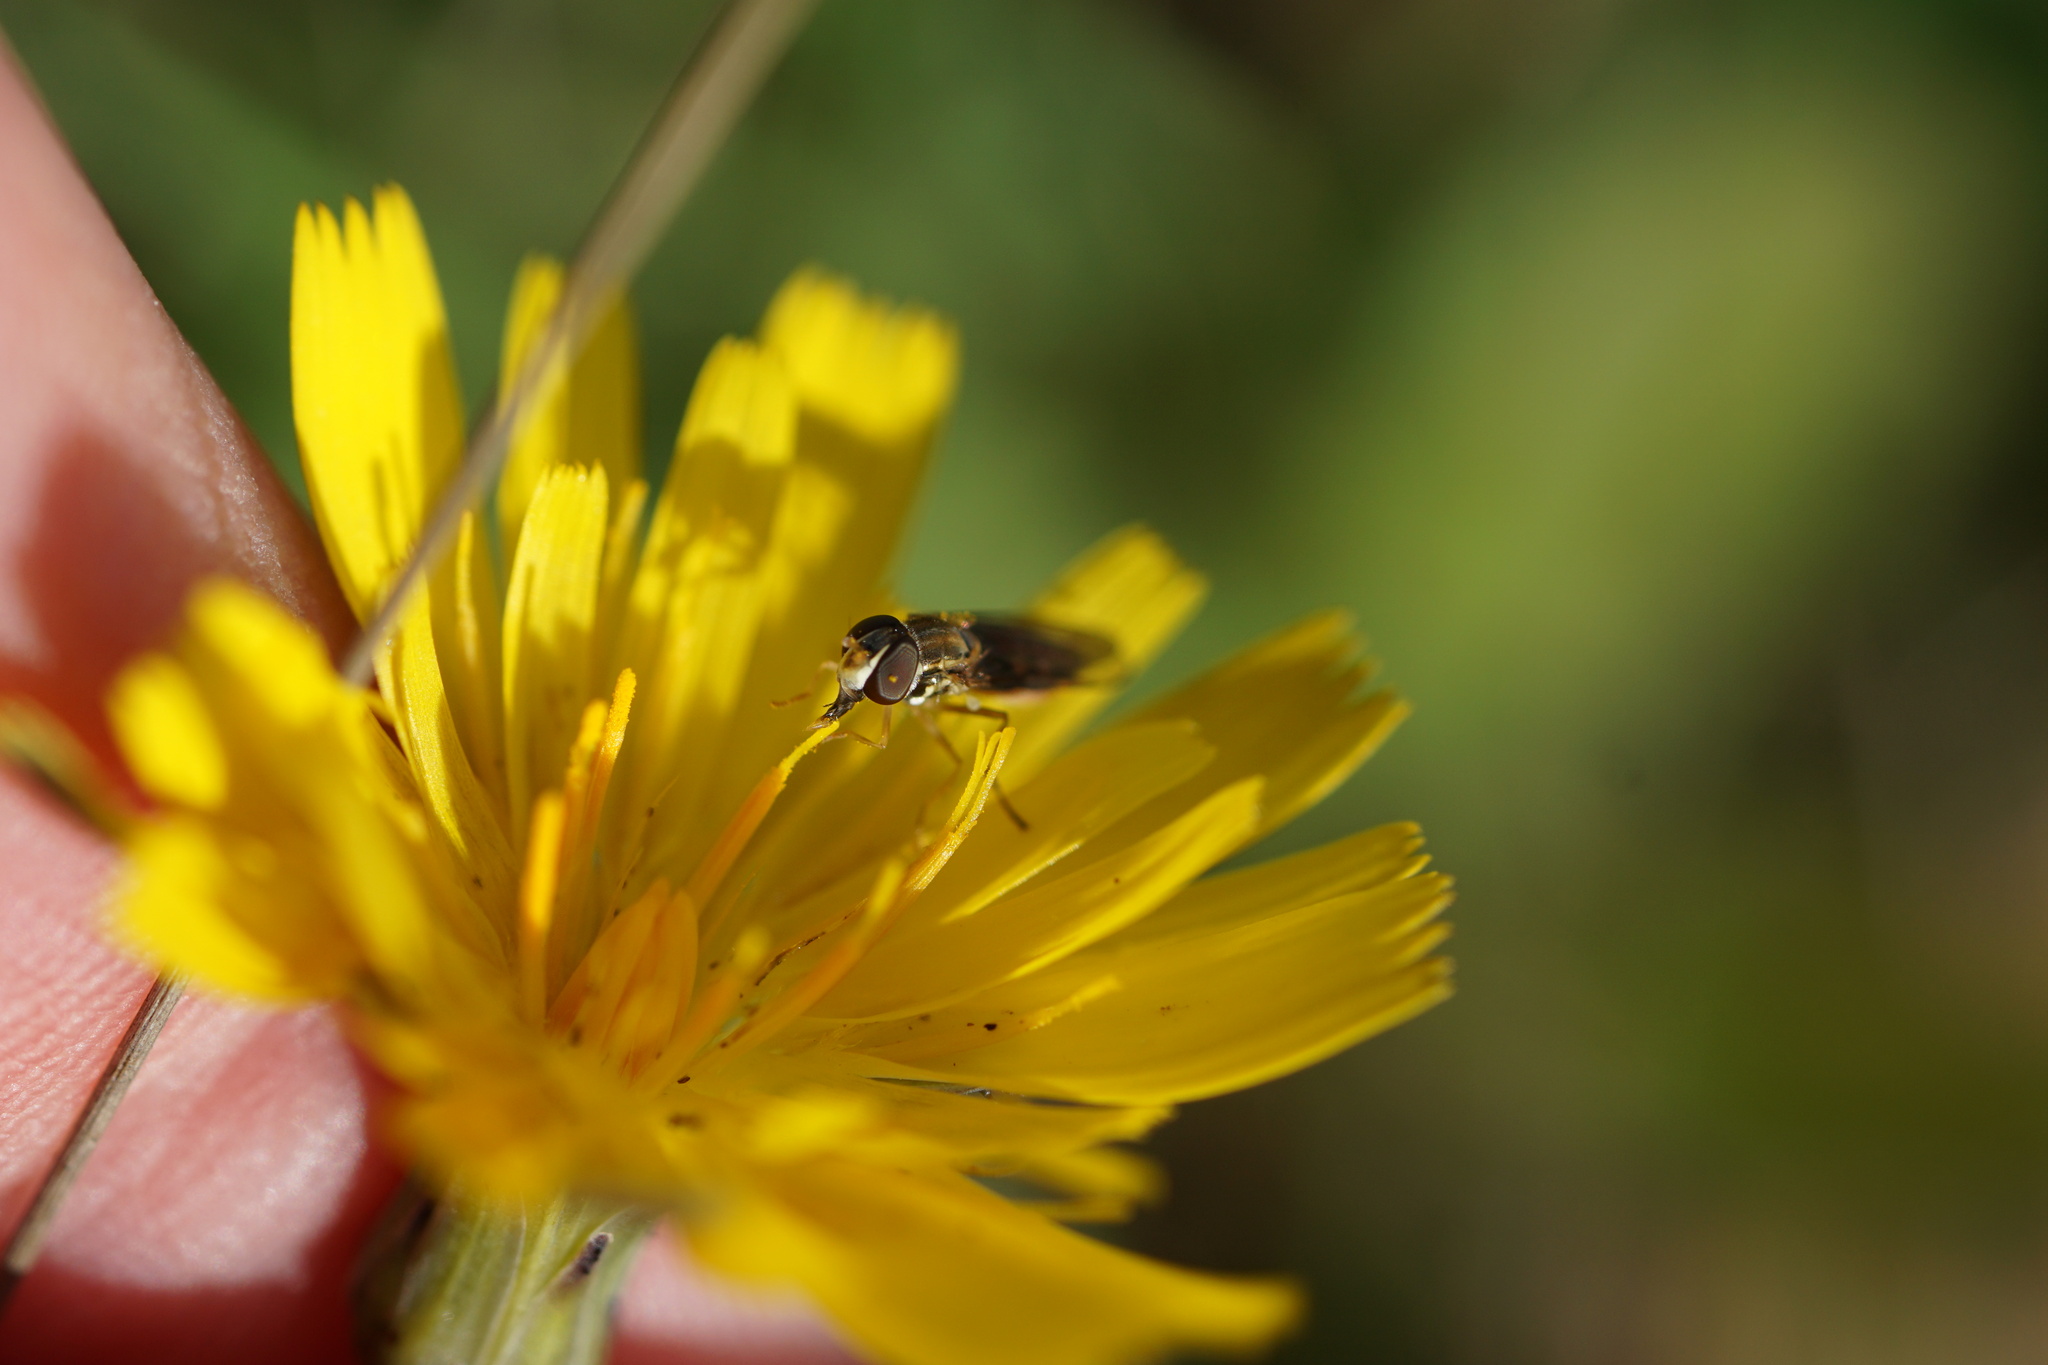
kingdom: Animalia
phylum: Arthropoda
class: Insecta
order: Diptera
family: Syrphidae
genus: Toxomerus
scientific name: Toxomerus marginatus
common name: Syrphid fly
